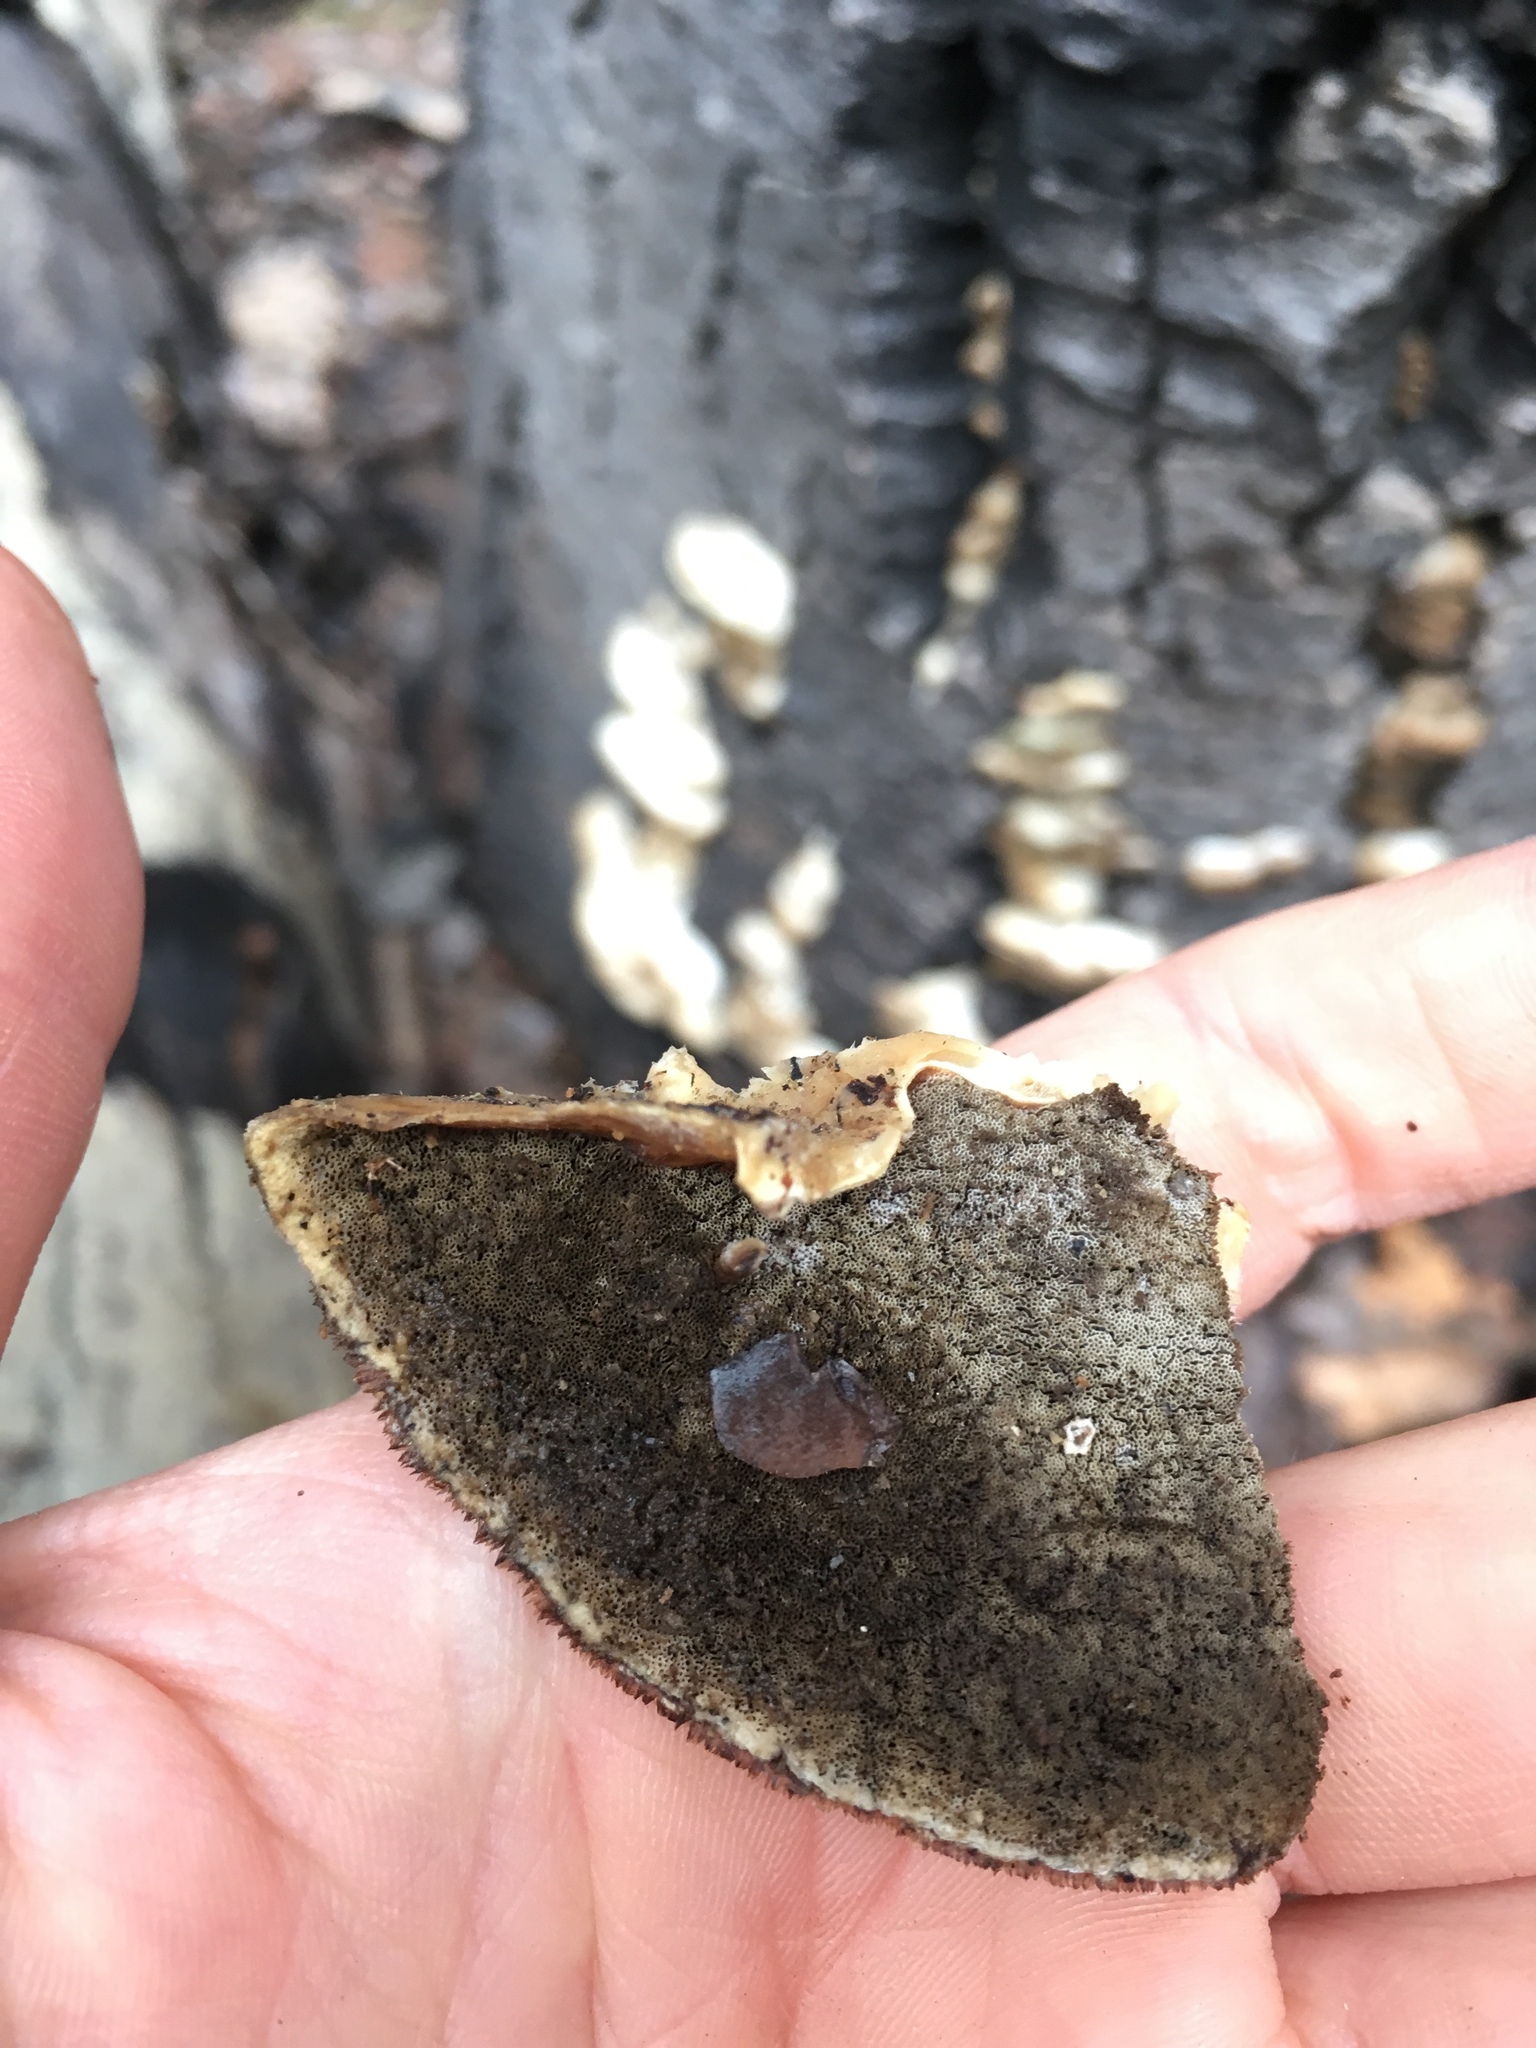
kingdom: Fungi
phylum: Basidiomycota
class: Agaricomycetes
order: Polyporales
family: Phanerochaetaceae
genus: Bjerkandera
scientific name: Bjerkandera adusta
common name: Smoky bracket
